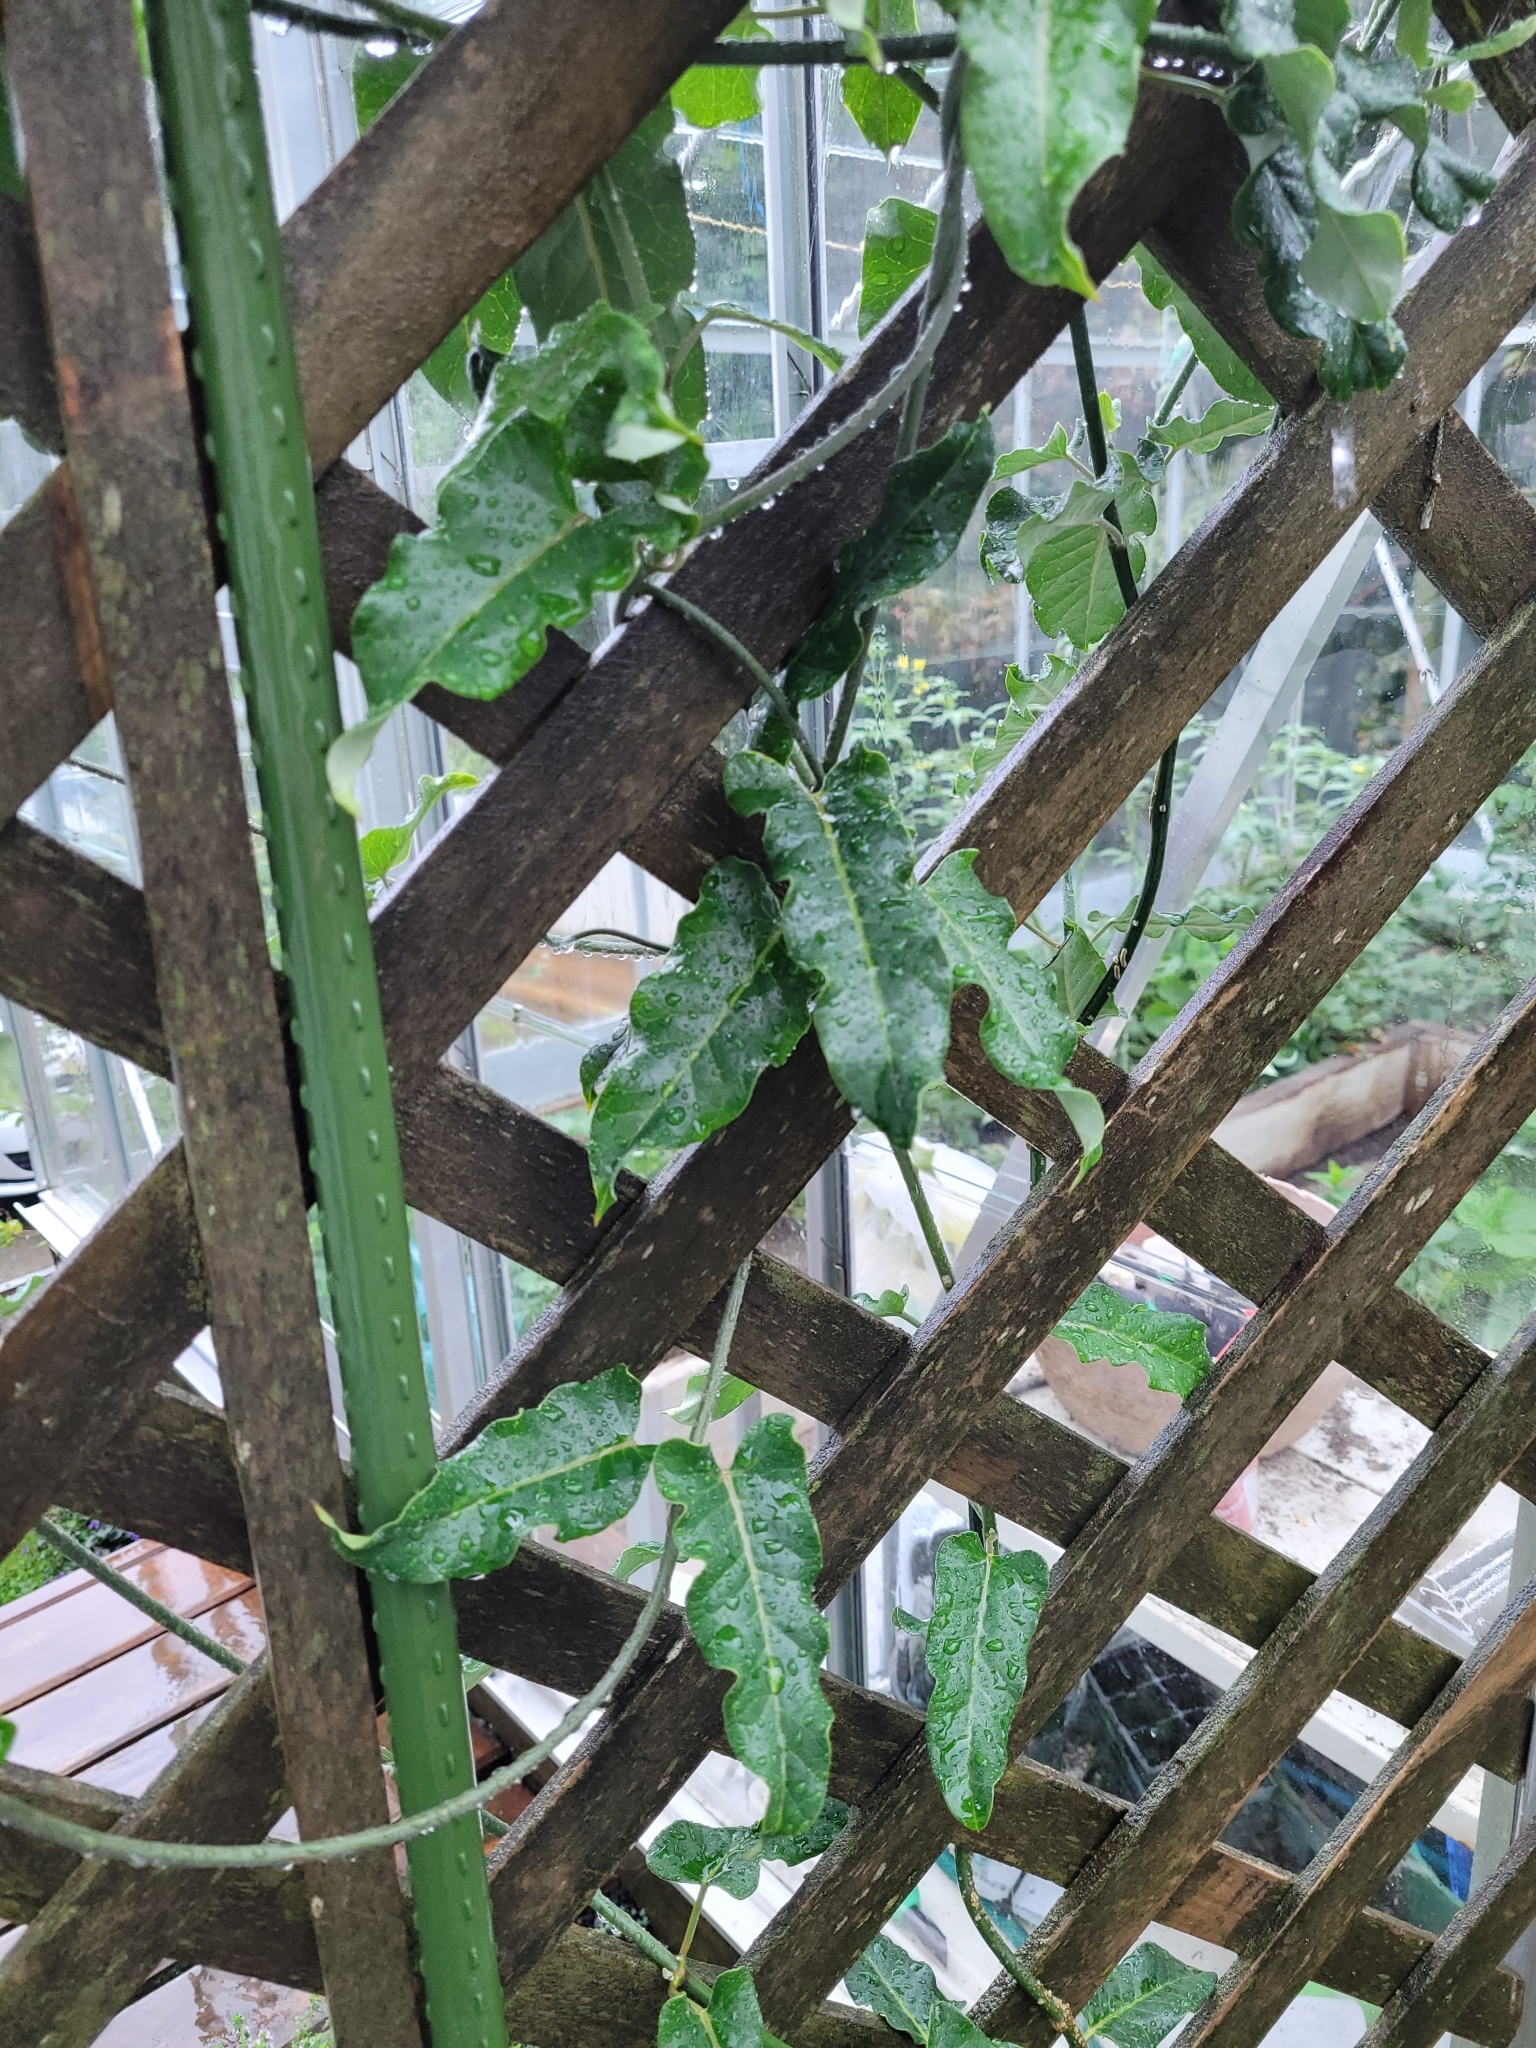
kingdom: Plantae
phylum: Tracheophyta
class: Magnoliopsida
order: Gentianales
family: Apocynaceae
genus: Araujia
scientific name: Araujia sericifera
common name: White bladderflower
